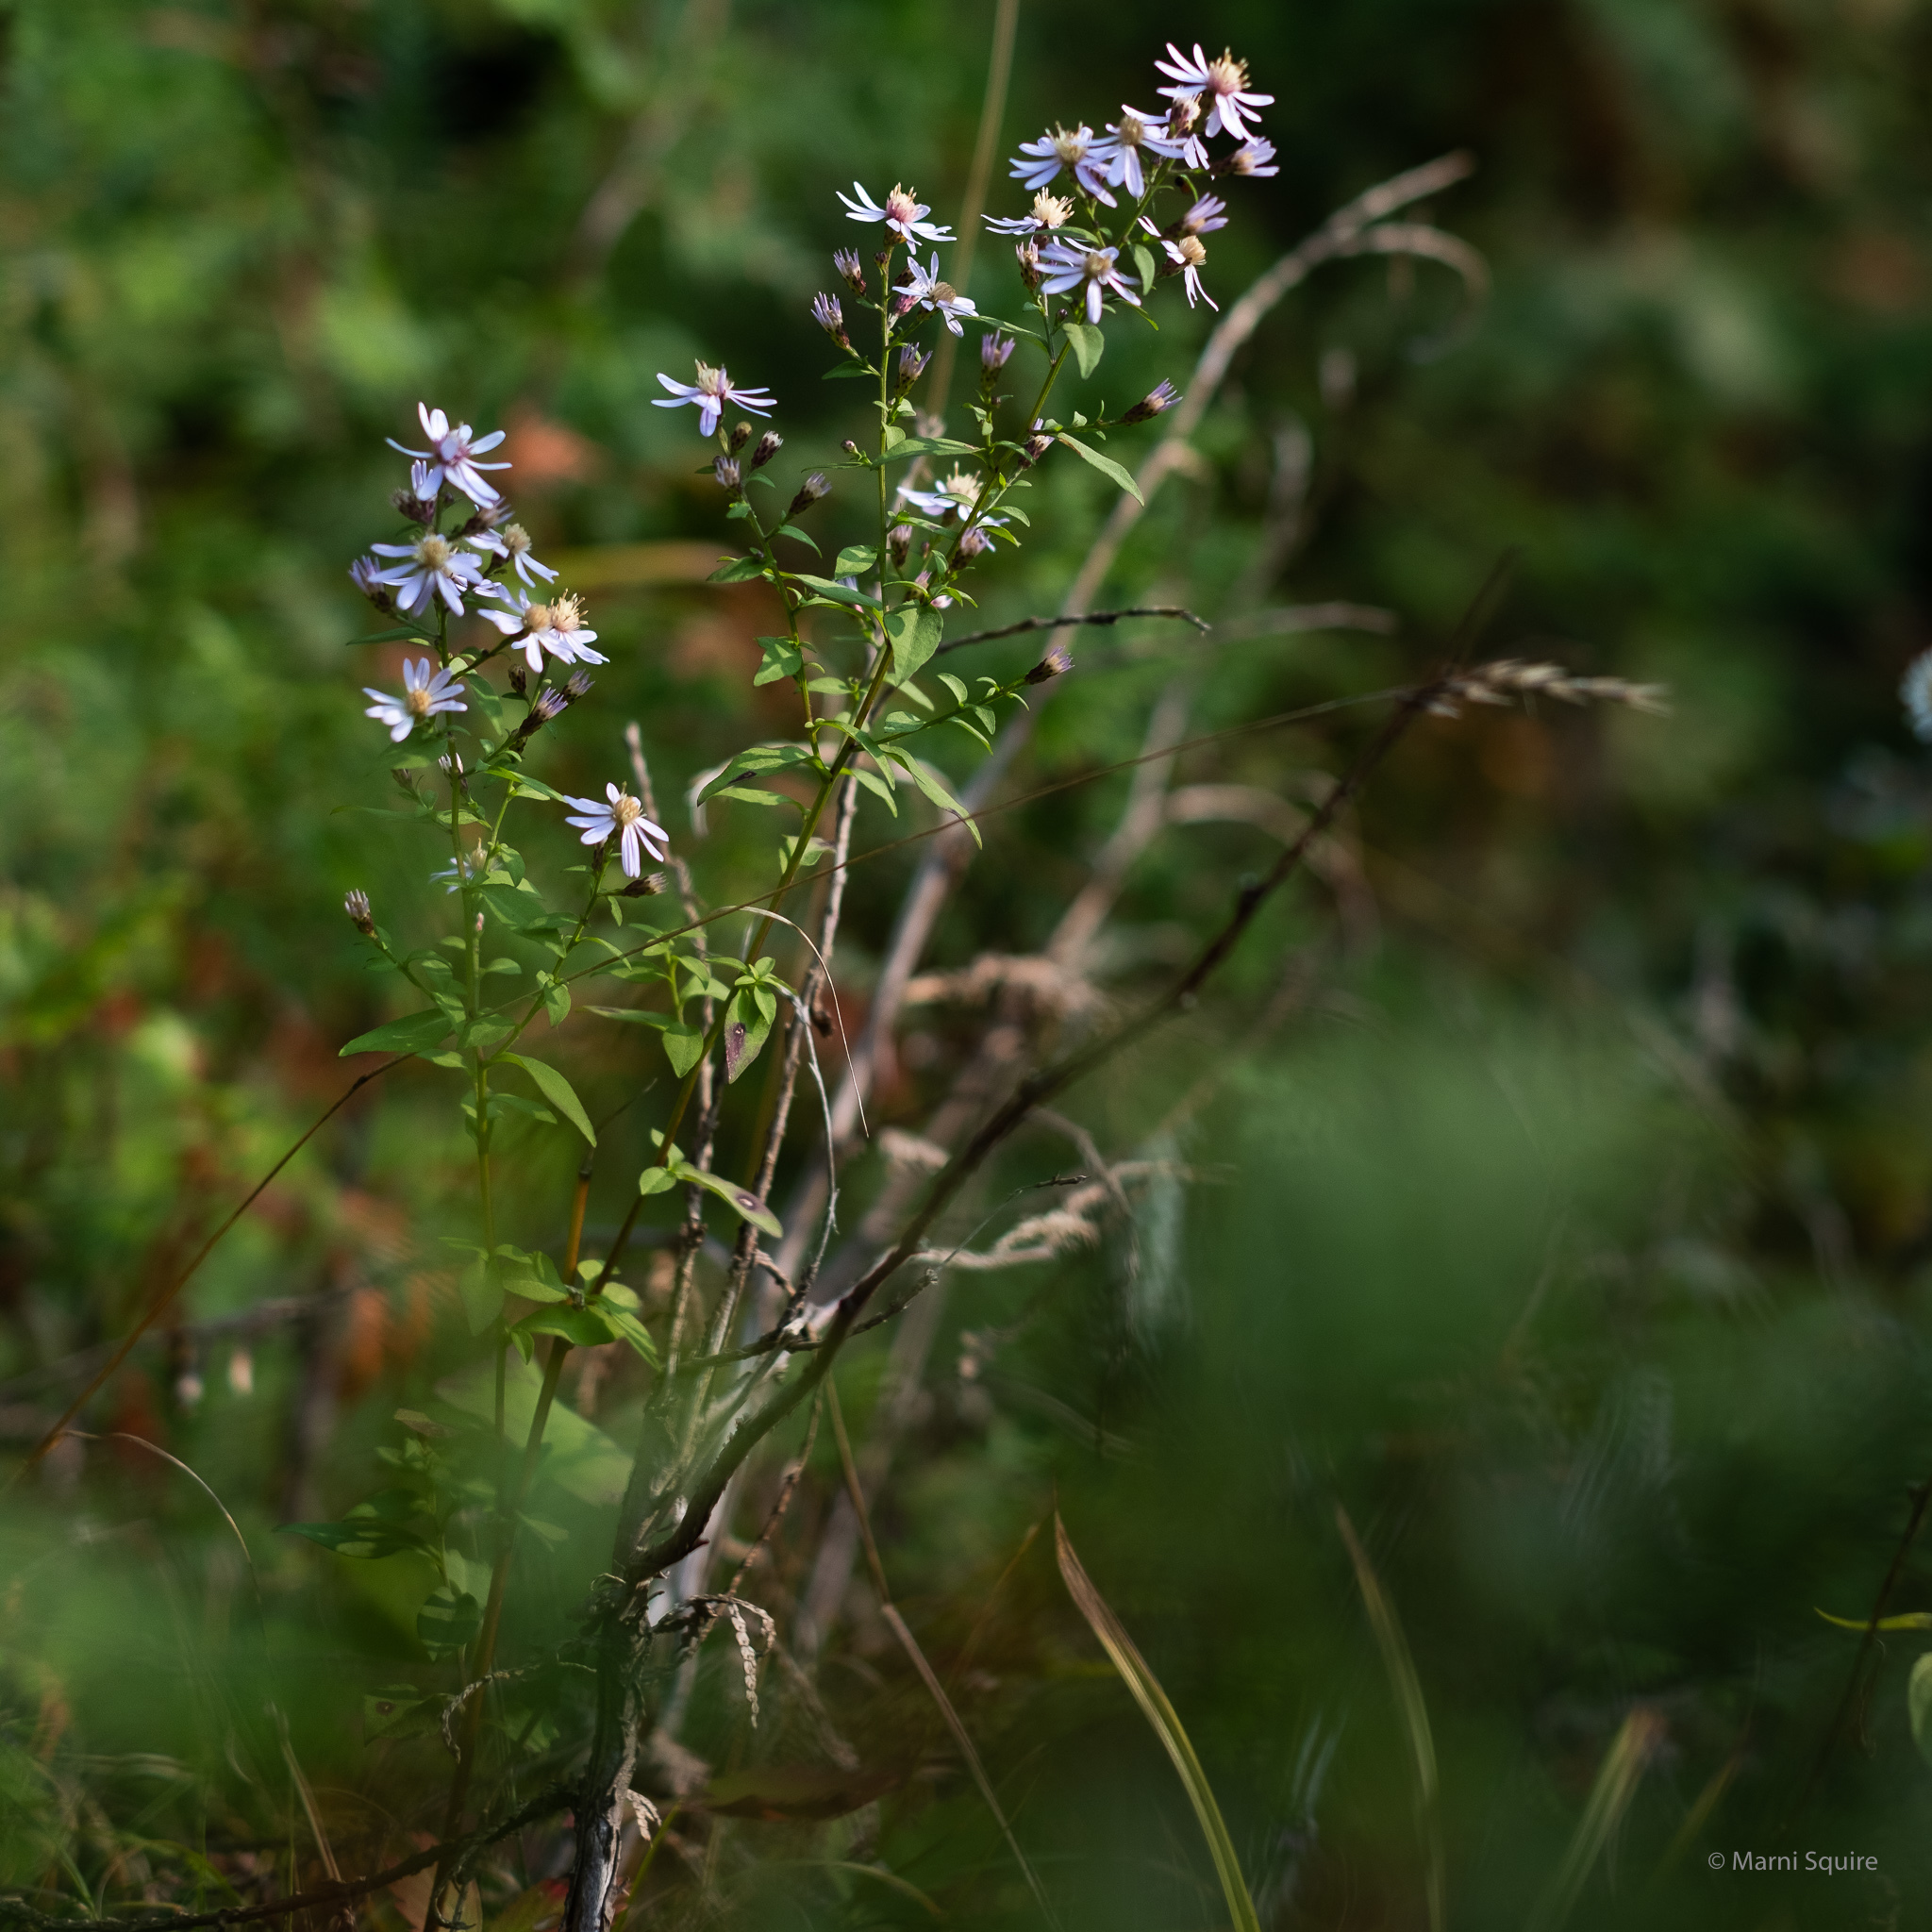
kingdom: Plantae
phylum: Tracheophyta
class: Magnoliopsida
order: Asterales
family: Asteraceae
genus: Symphyotrichum
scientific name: Symphyotrichum cordifolium
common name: Beeweed
